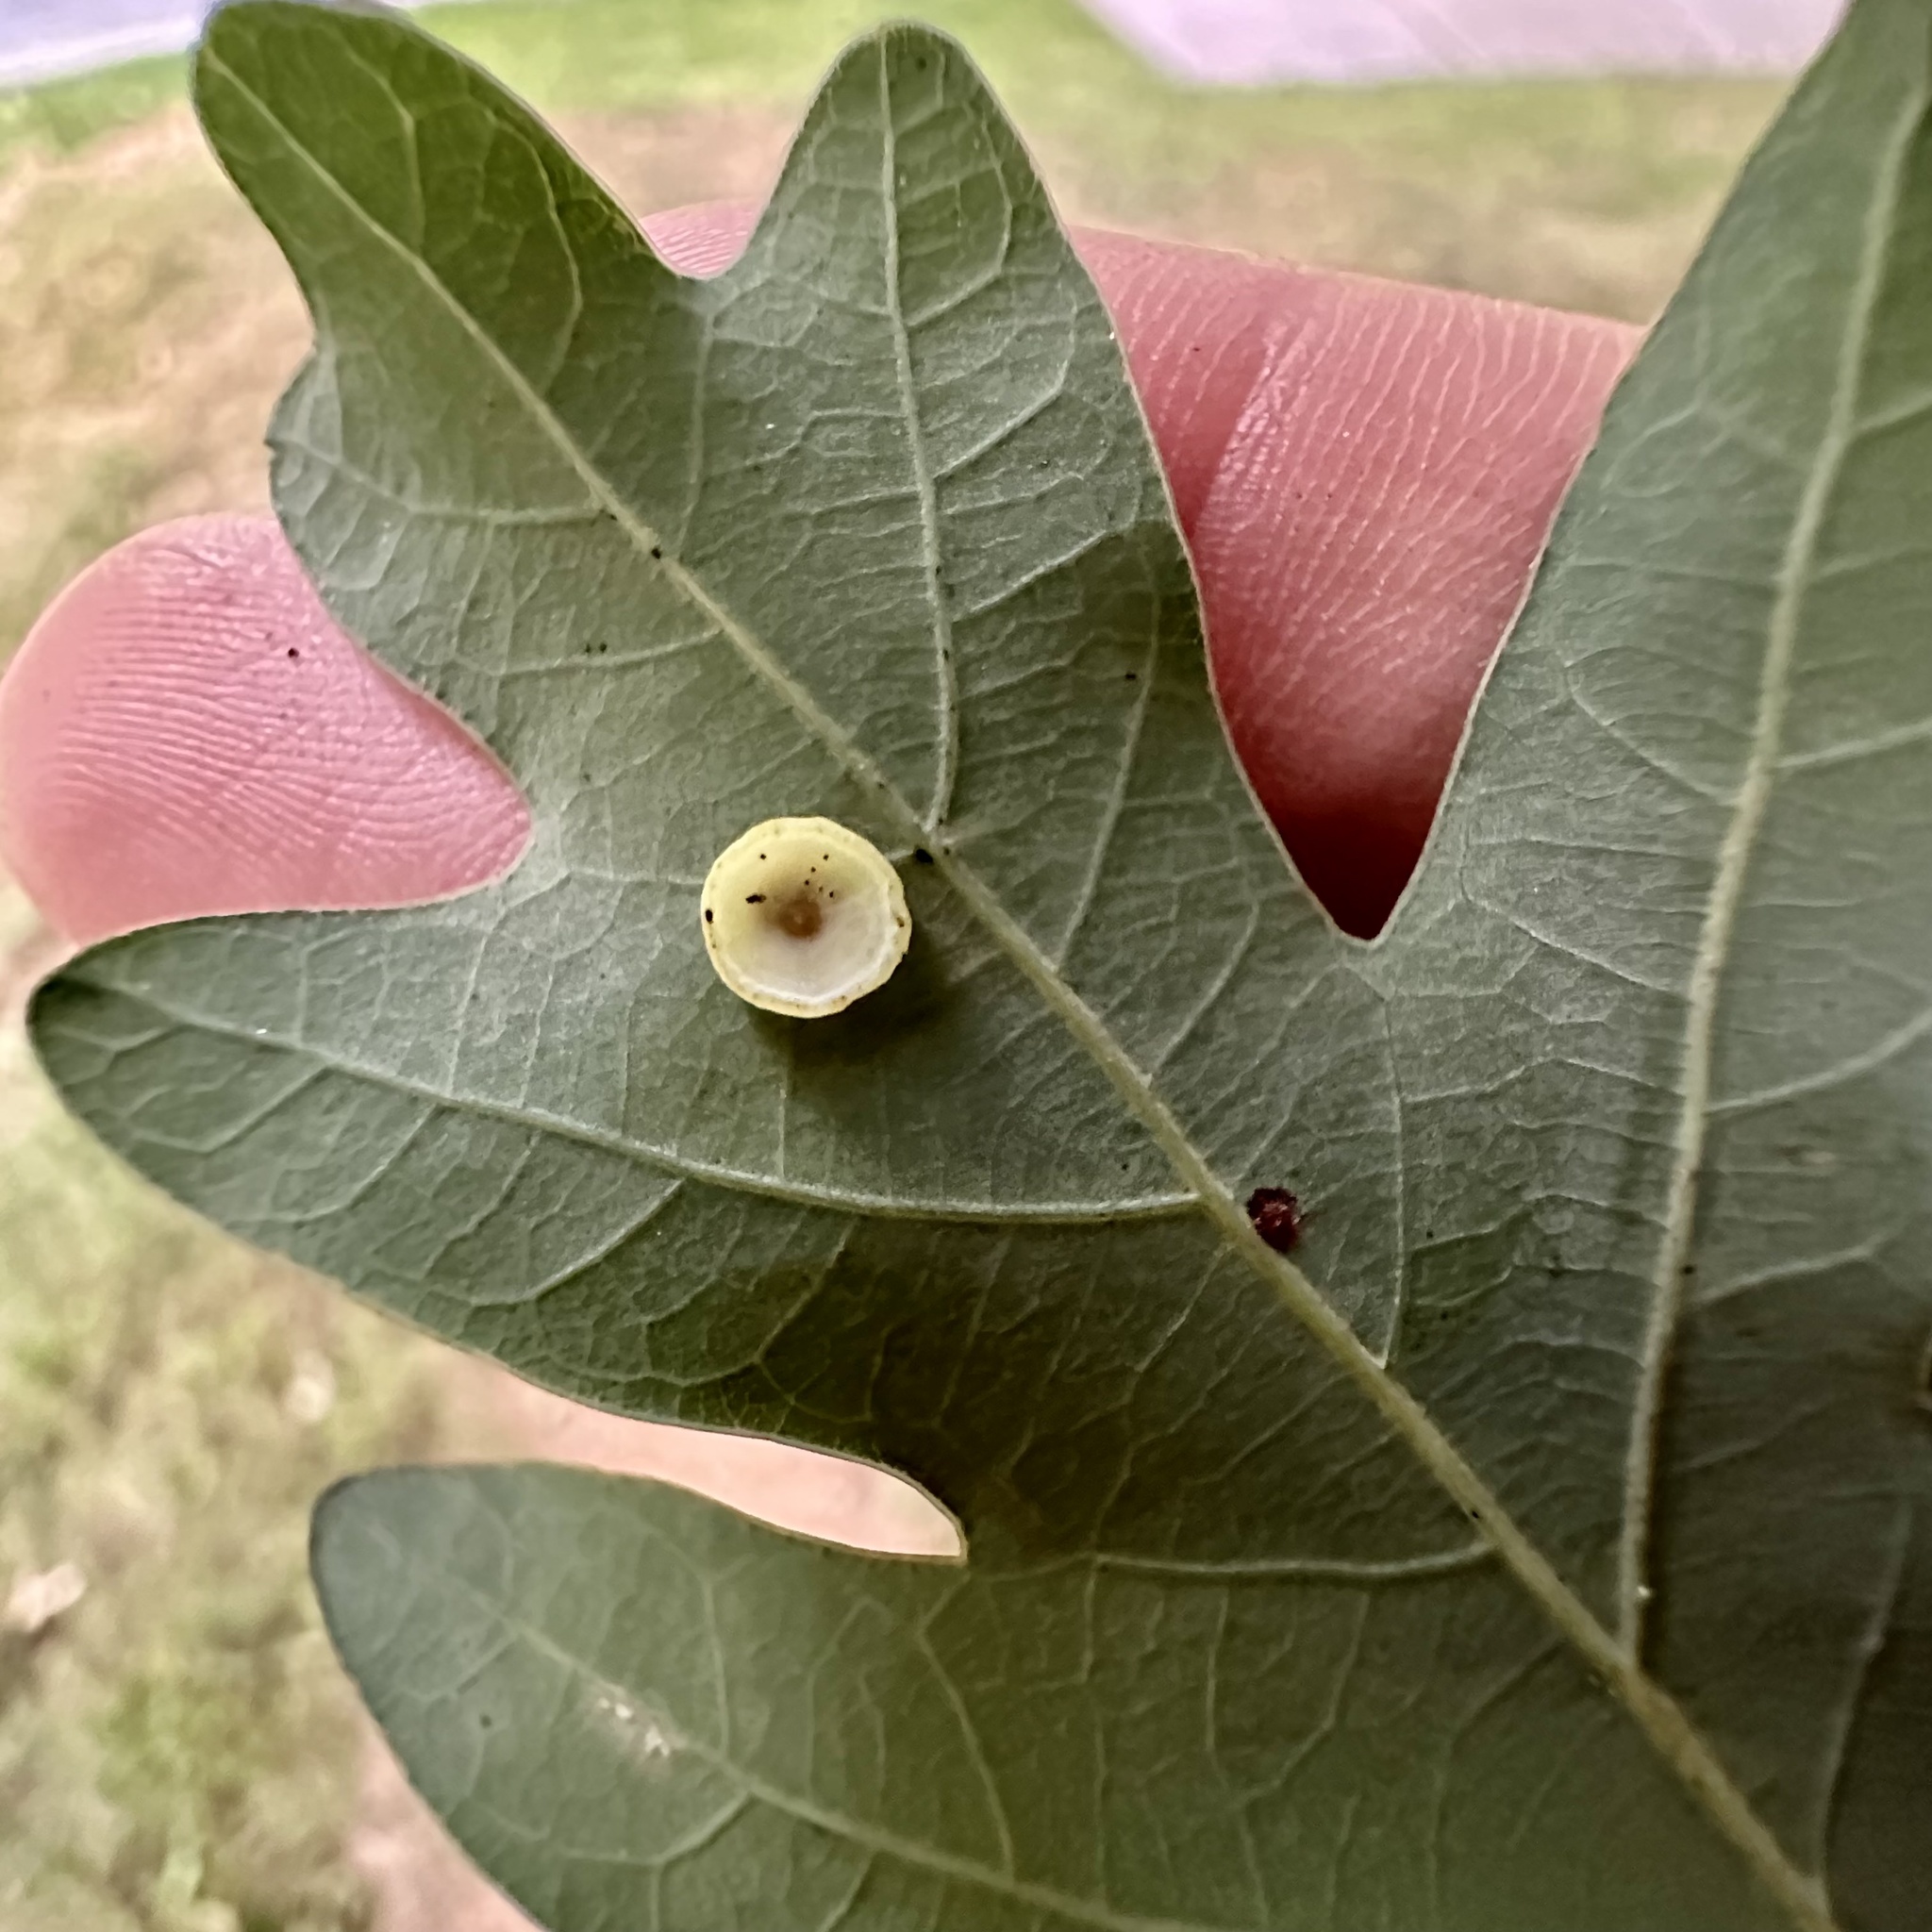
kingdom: Animalia
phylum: Arthropoda
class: Insecta
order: Hymenoptera
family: Cynipidae
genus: Phylloteras
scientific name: Phylloteras poculum
